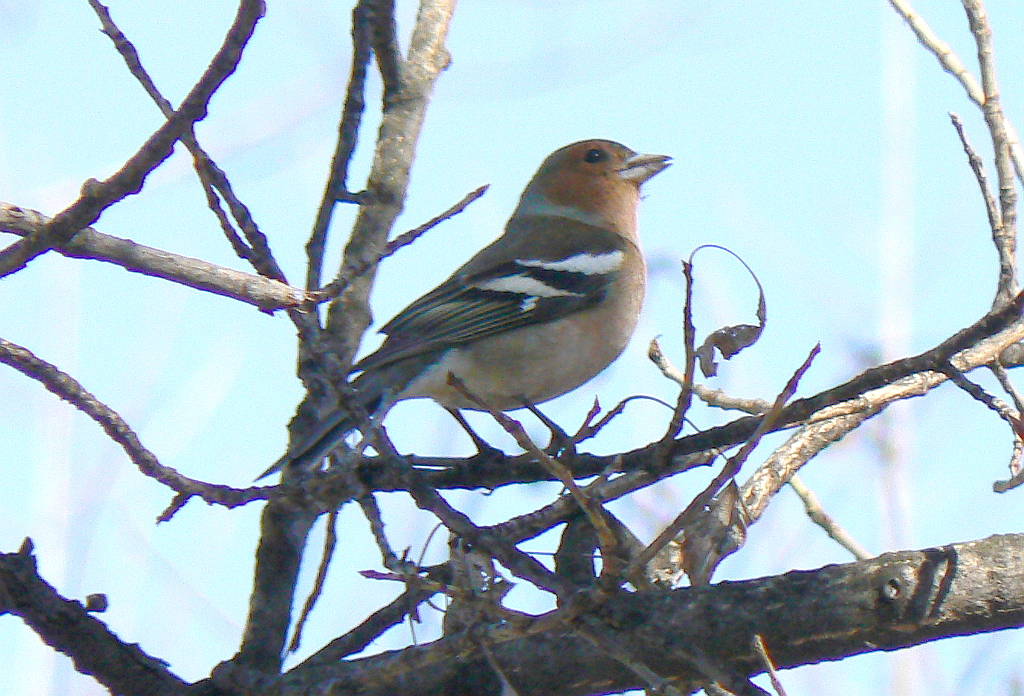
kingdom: Animalia
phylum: Chordata
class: Aves
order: Passeriformes
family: Fringillidae
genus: Fringilla
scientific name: Fringilla coelebs
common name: Common chaffinch
